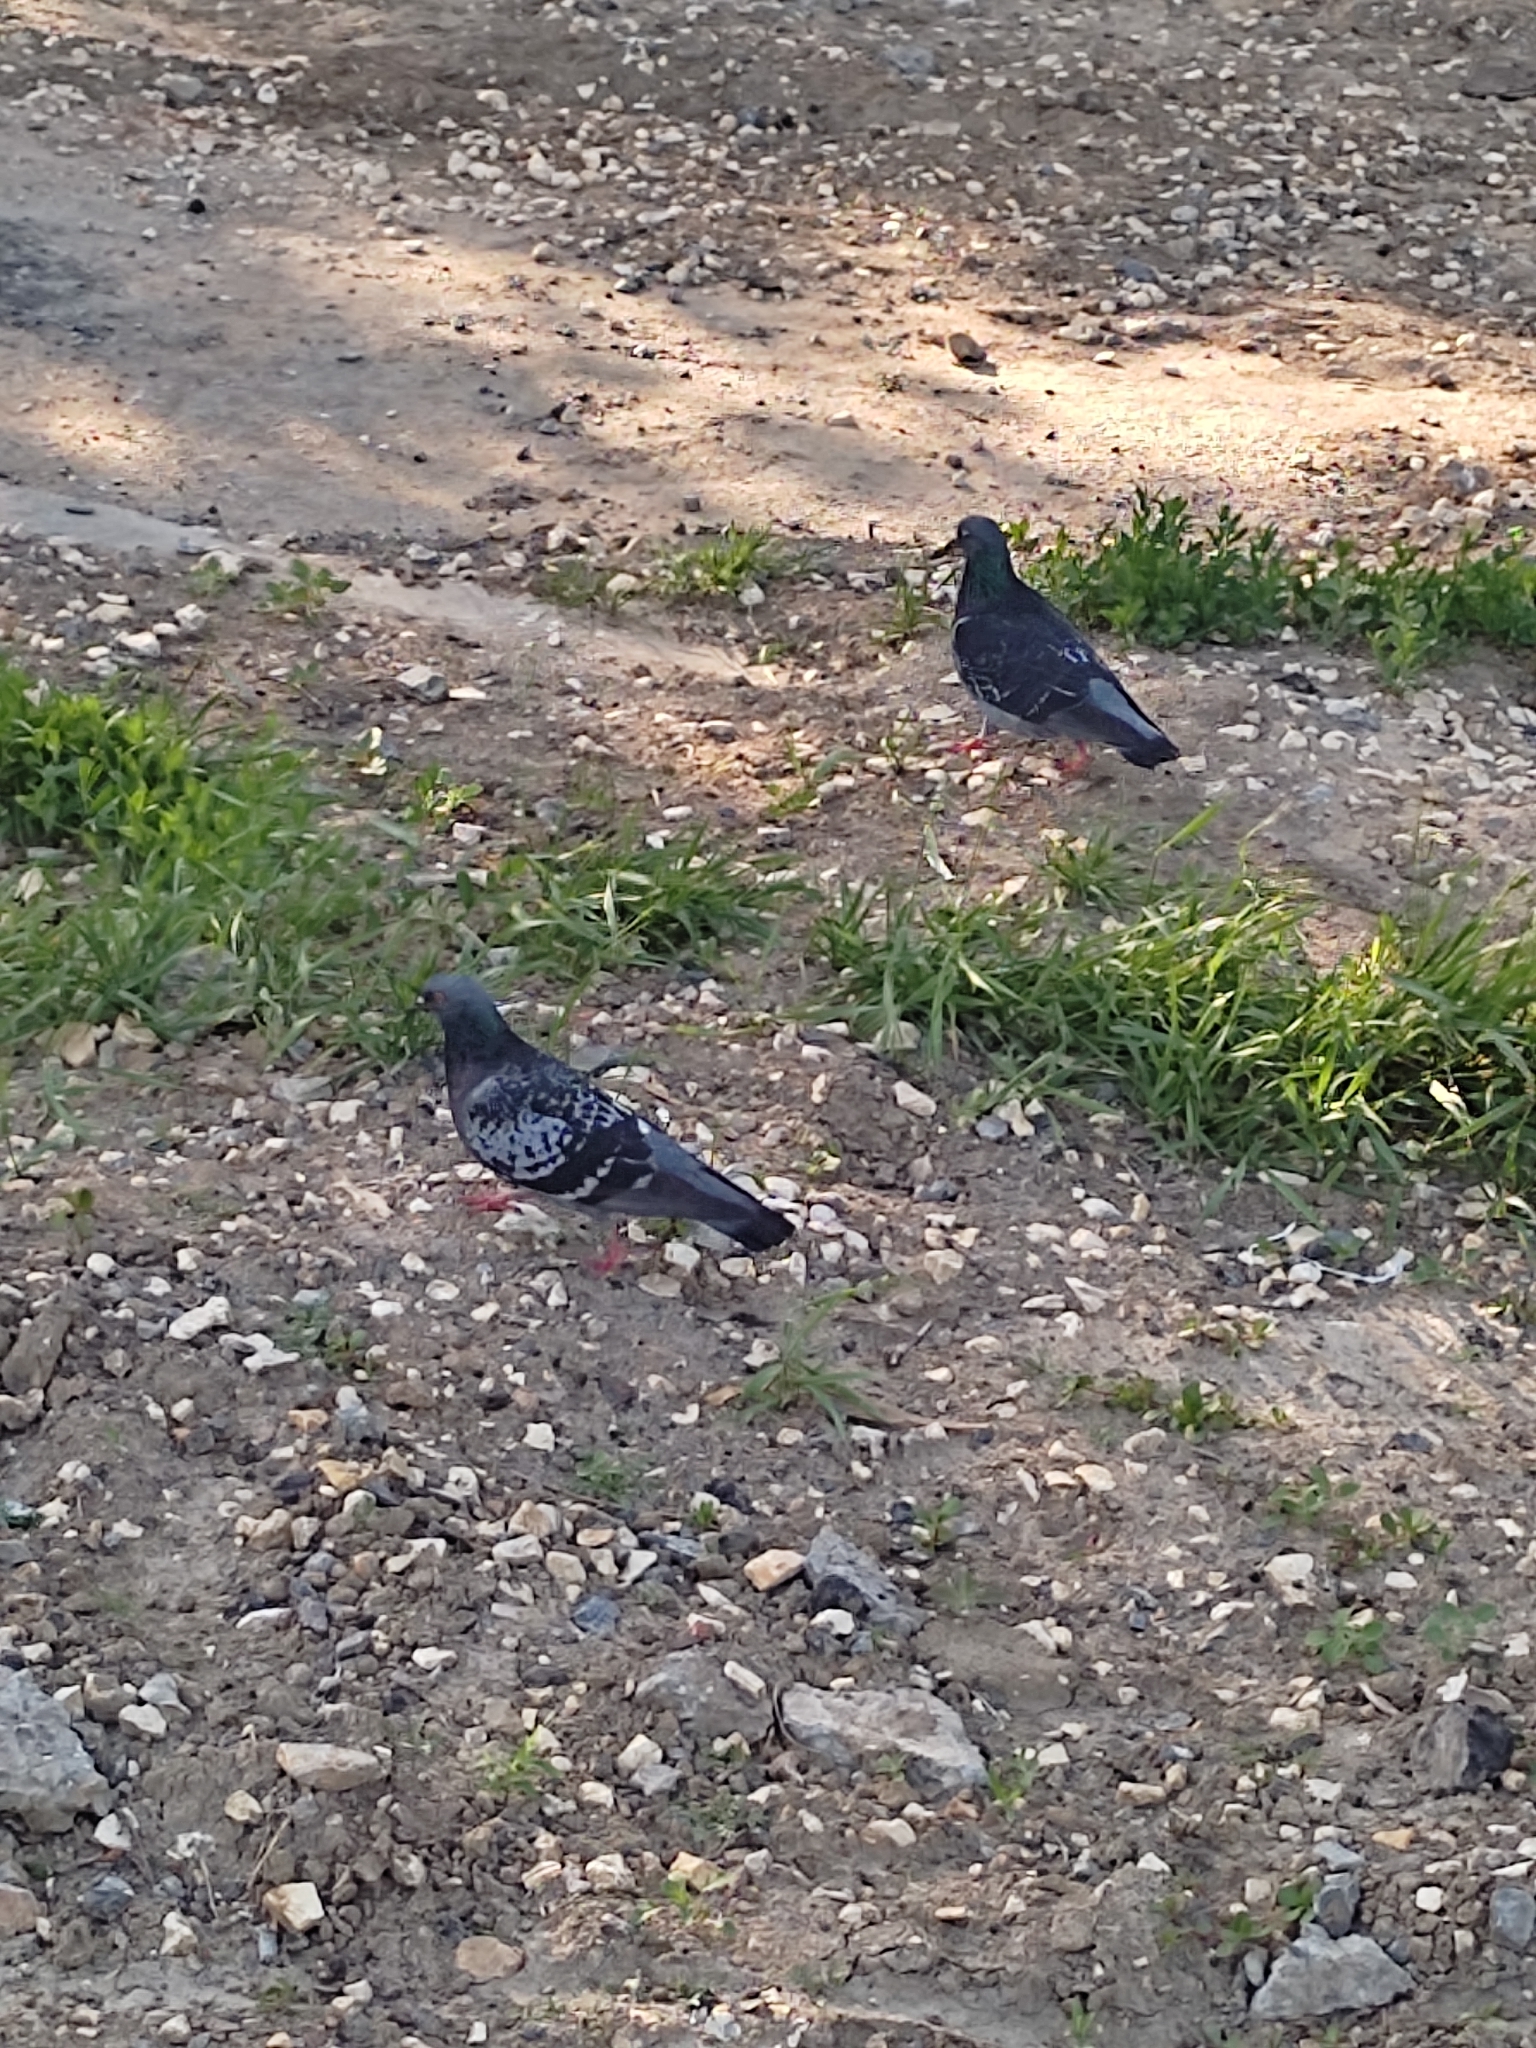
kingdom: Animalia
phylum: Chordata
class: Aves
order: Columbiformes
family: Columbidae
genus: Columba
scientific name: Columba livia
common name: Rock pigeon
